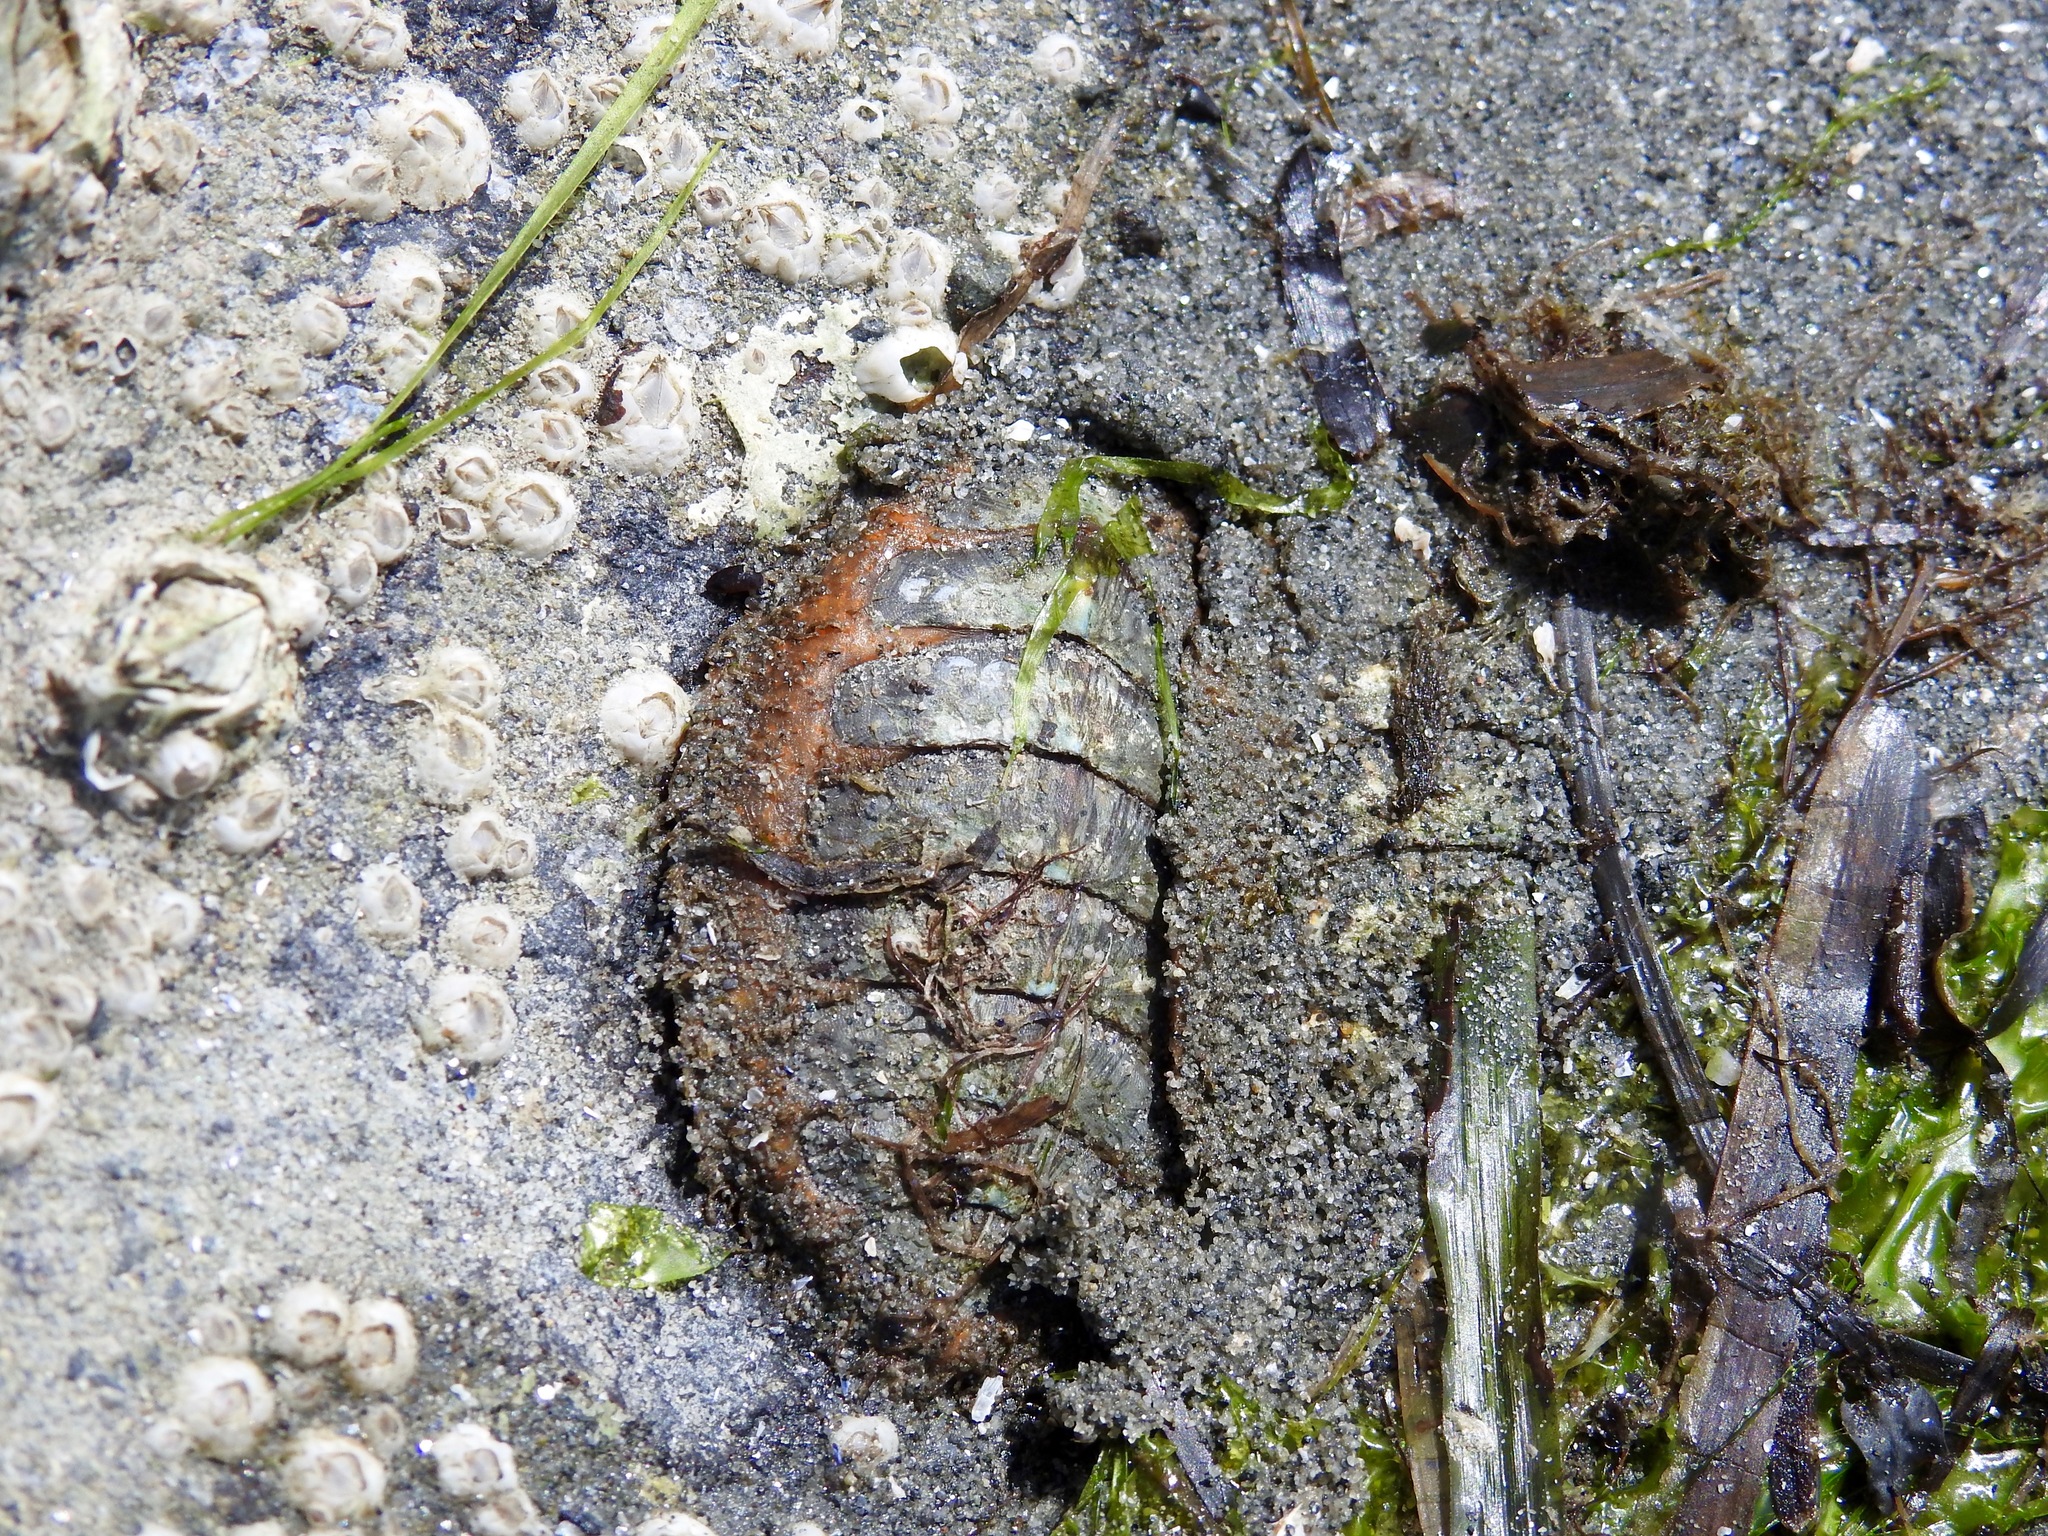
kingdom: Animalia
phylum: Mollusca
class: Polyplacophora
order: Chitonida
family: Mopaliidae
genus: Mopalia
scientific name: Mopalia lignosa
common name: Woody chiton
